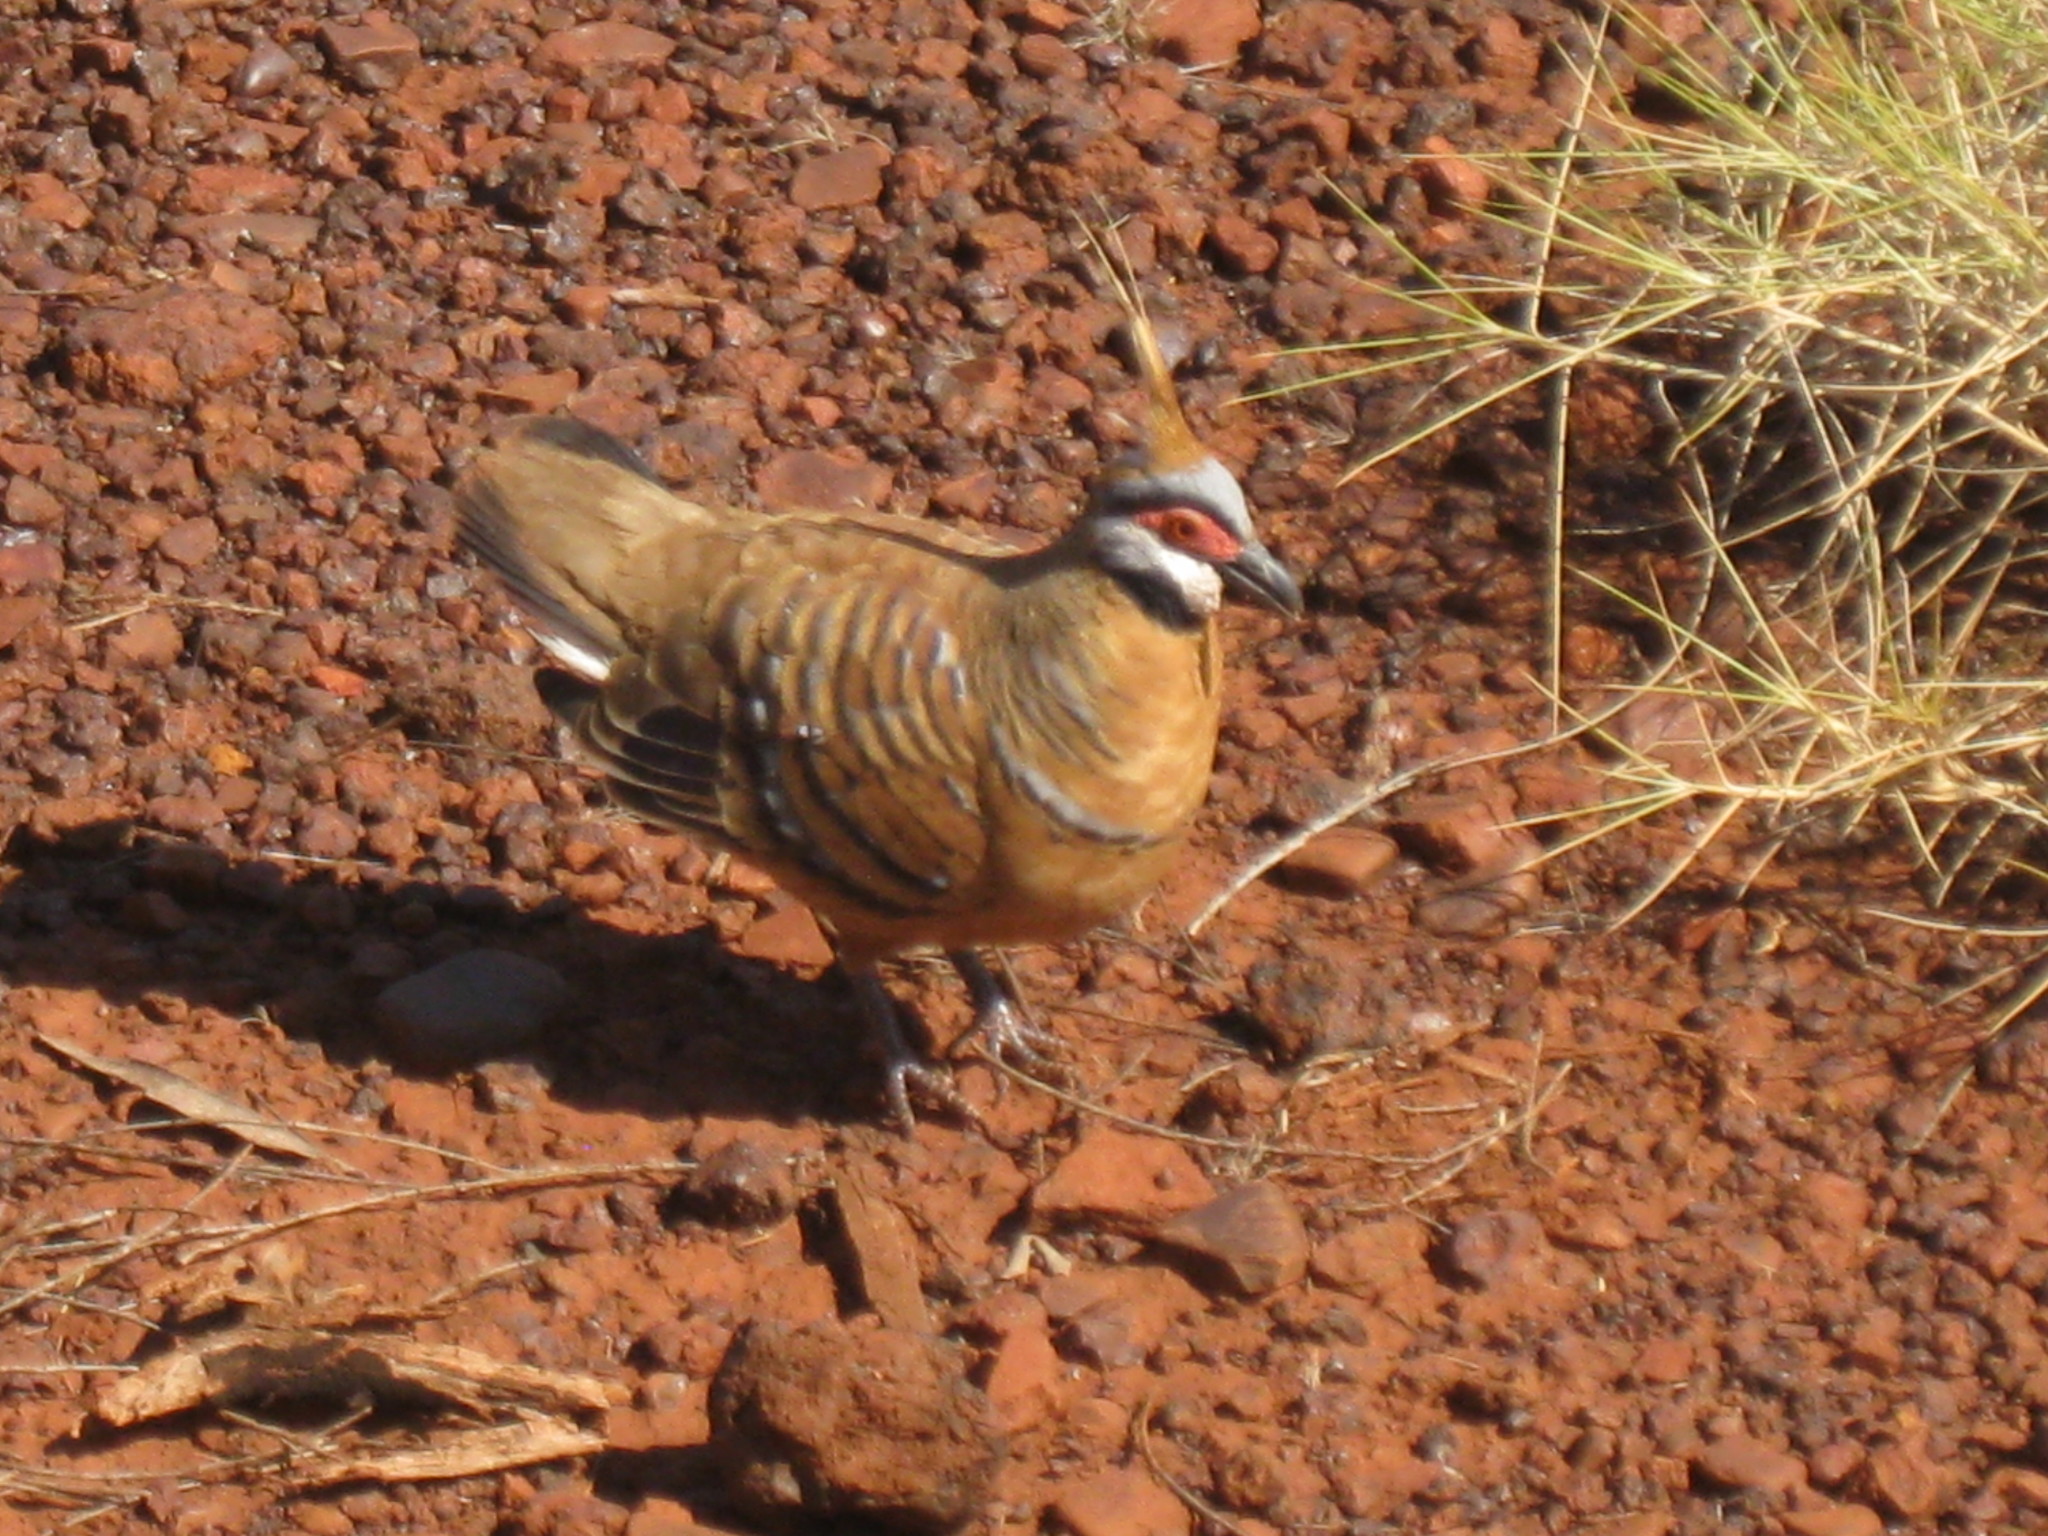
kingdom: Animalia
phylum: Chordata
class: Aves
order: Columbiformes
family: Columbidae
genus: Geophaps
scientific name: Geophaps plumifera
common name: Spinifex pigeon
